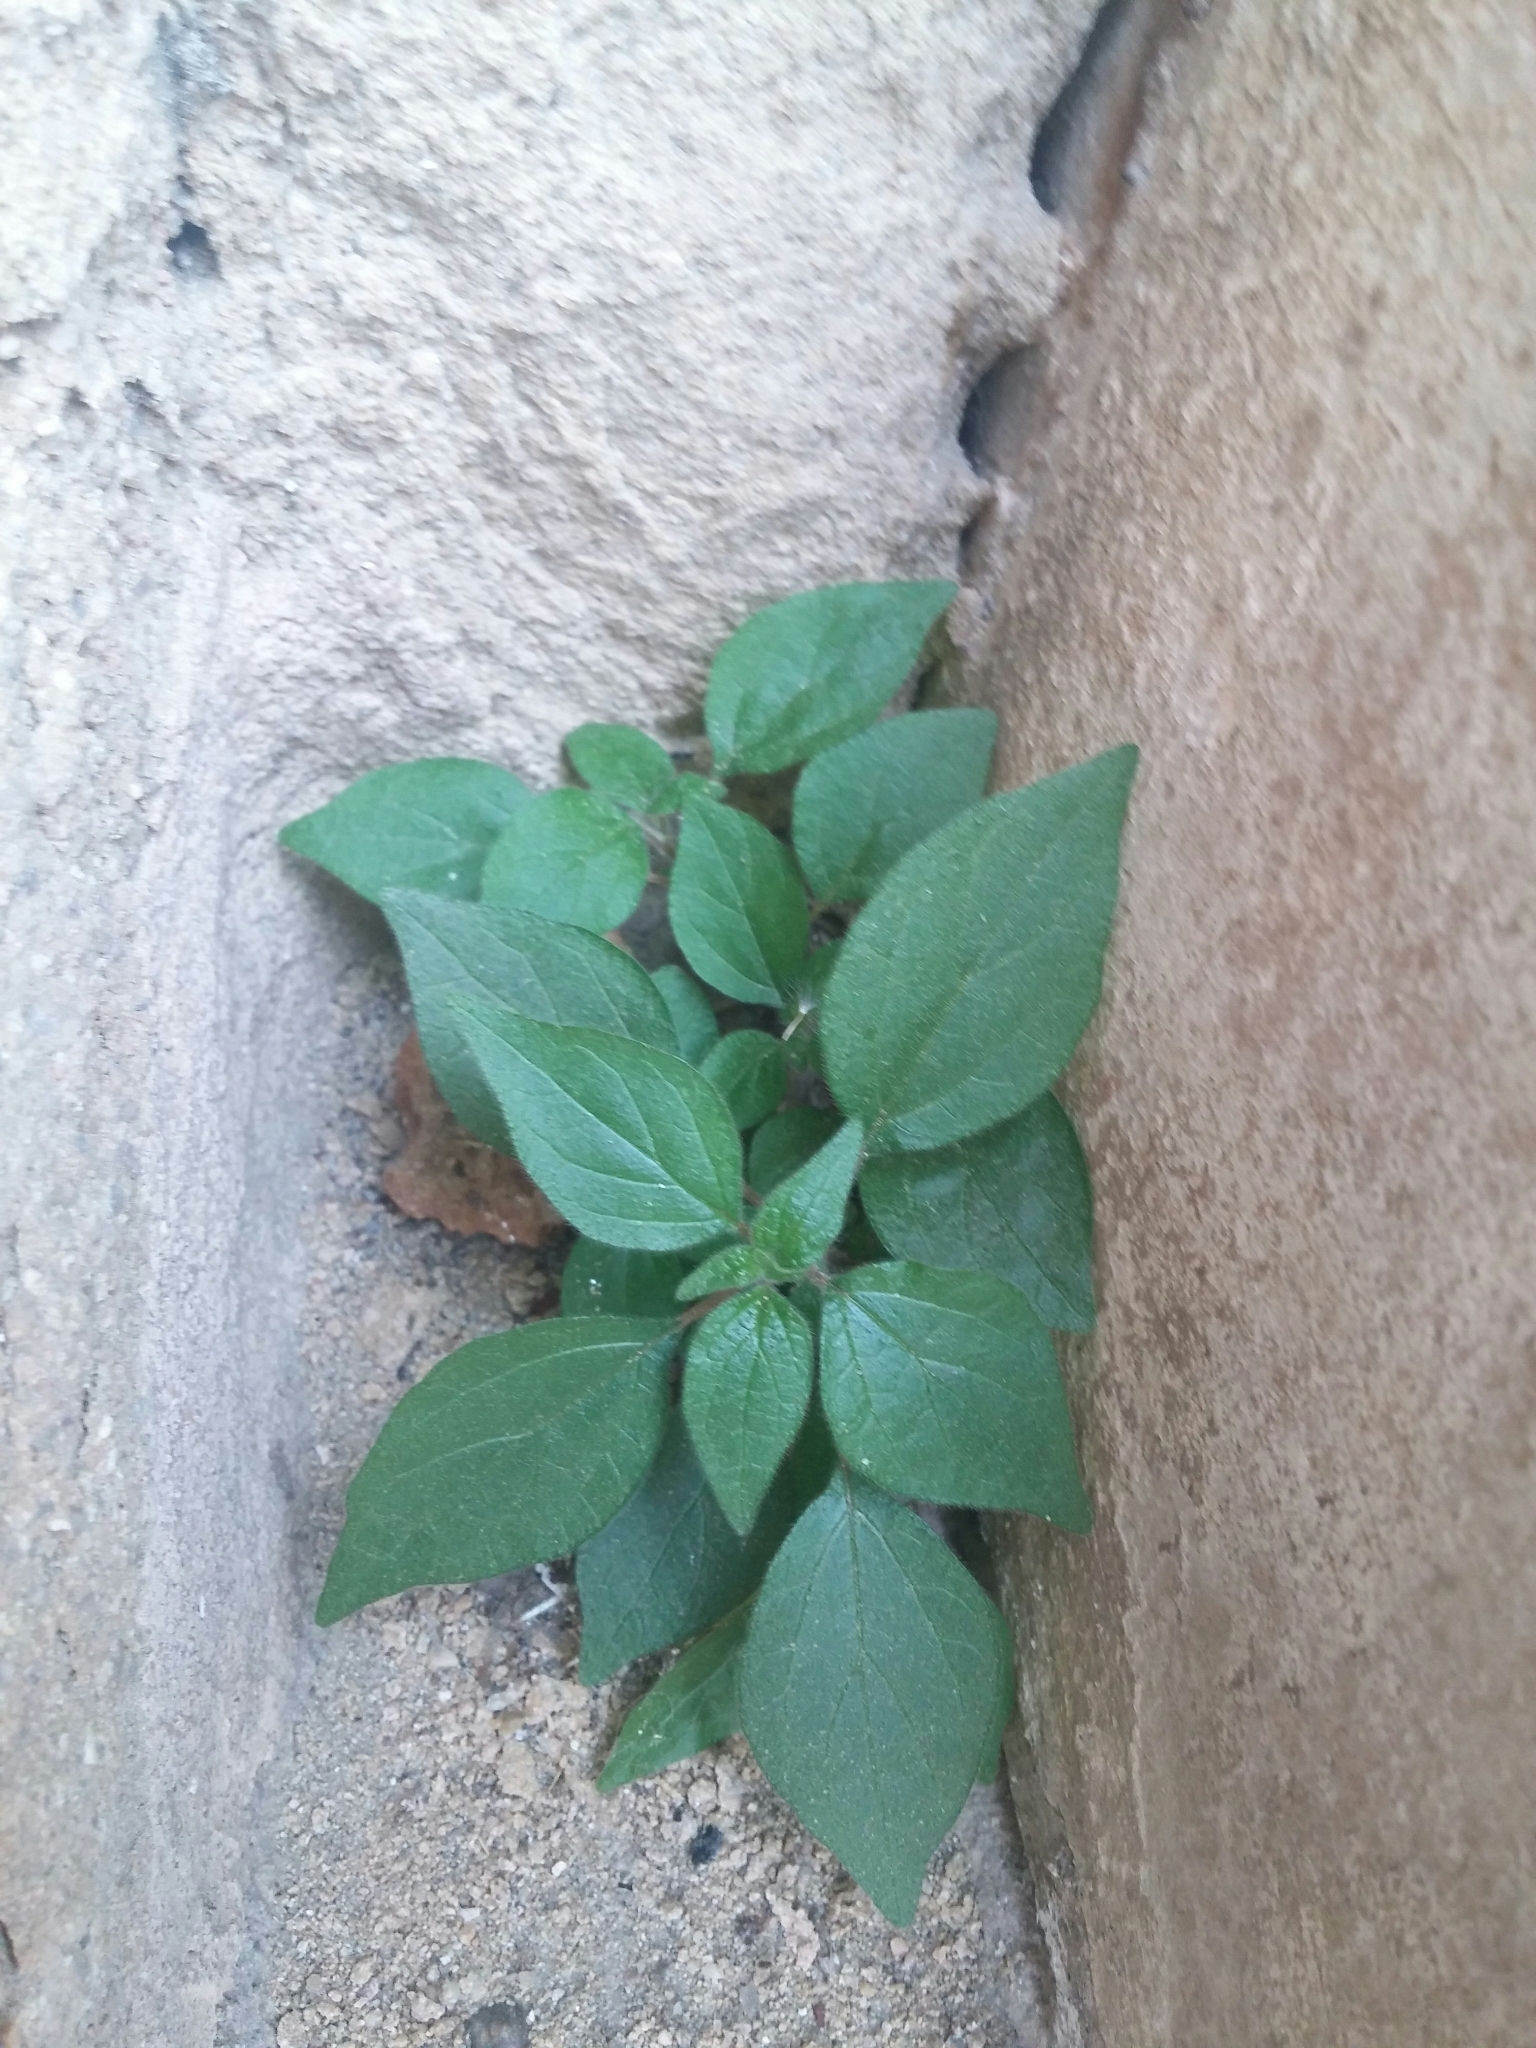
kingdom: Plantae
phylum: Tracheophyta
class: Magnoliopsida
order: Rosales
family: Urticaceae
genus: Parietaria
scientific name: Parietaria officinalis
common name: Eastern pellitory-of-the-wall
